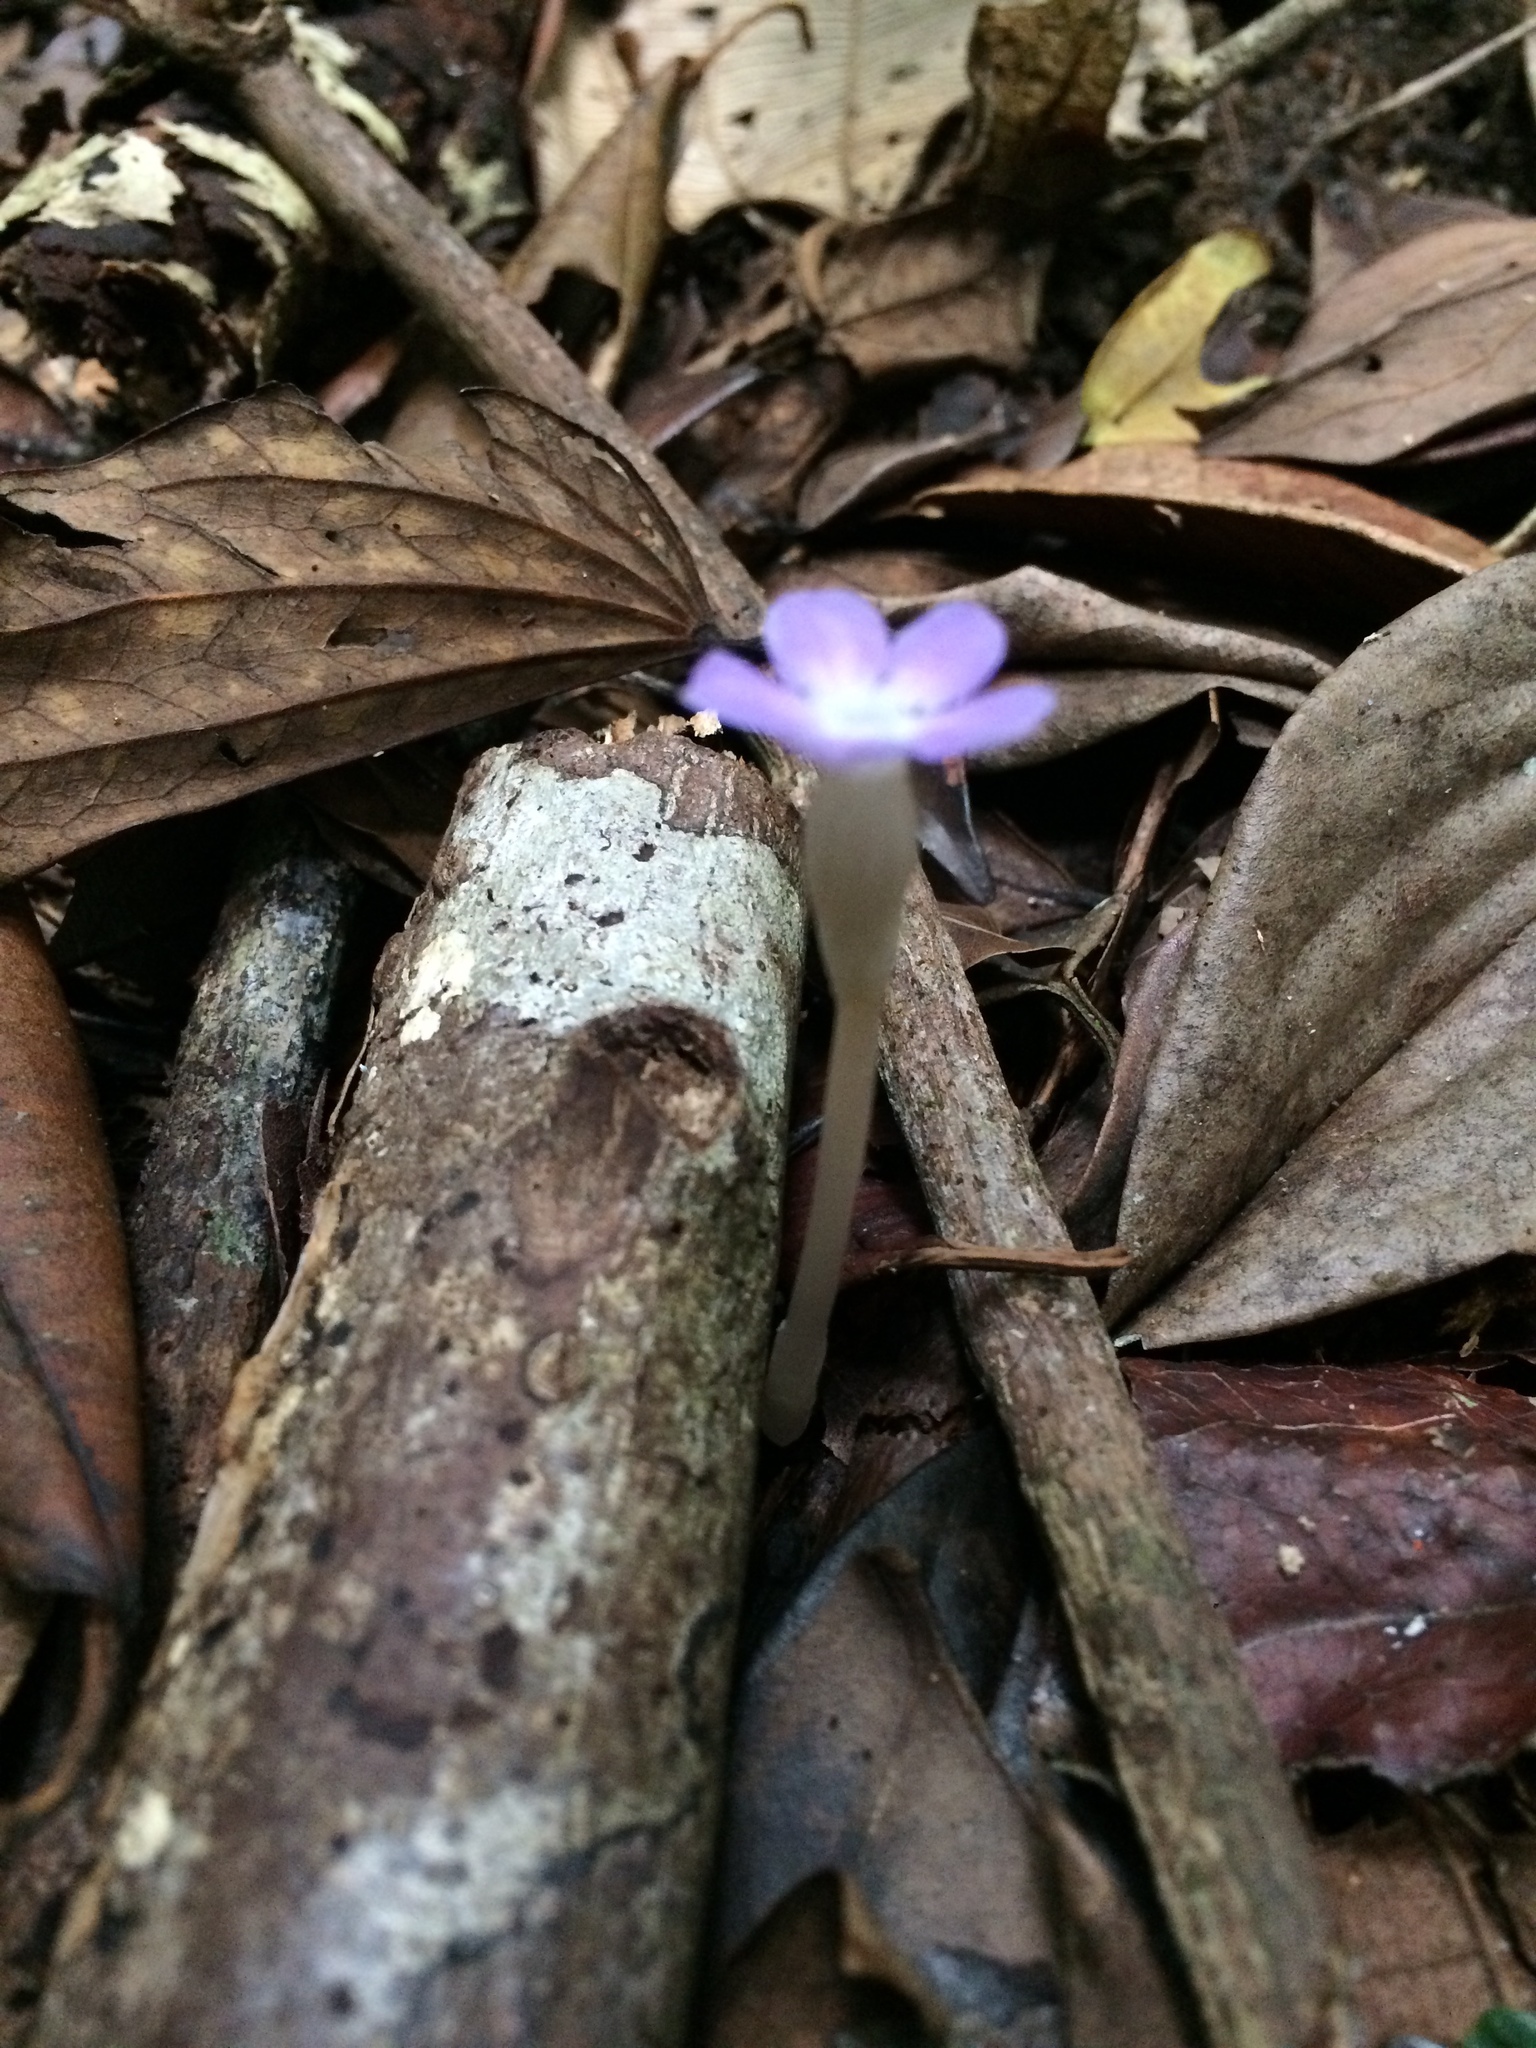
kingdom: Plantae
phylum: Tracheophyta
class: Magnoliopsida
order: Gentianales
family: Gentianaceae
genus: Voyria
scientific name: Voyria obconica
